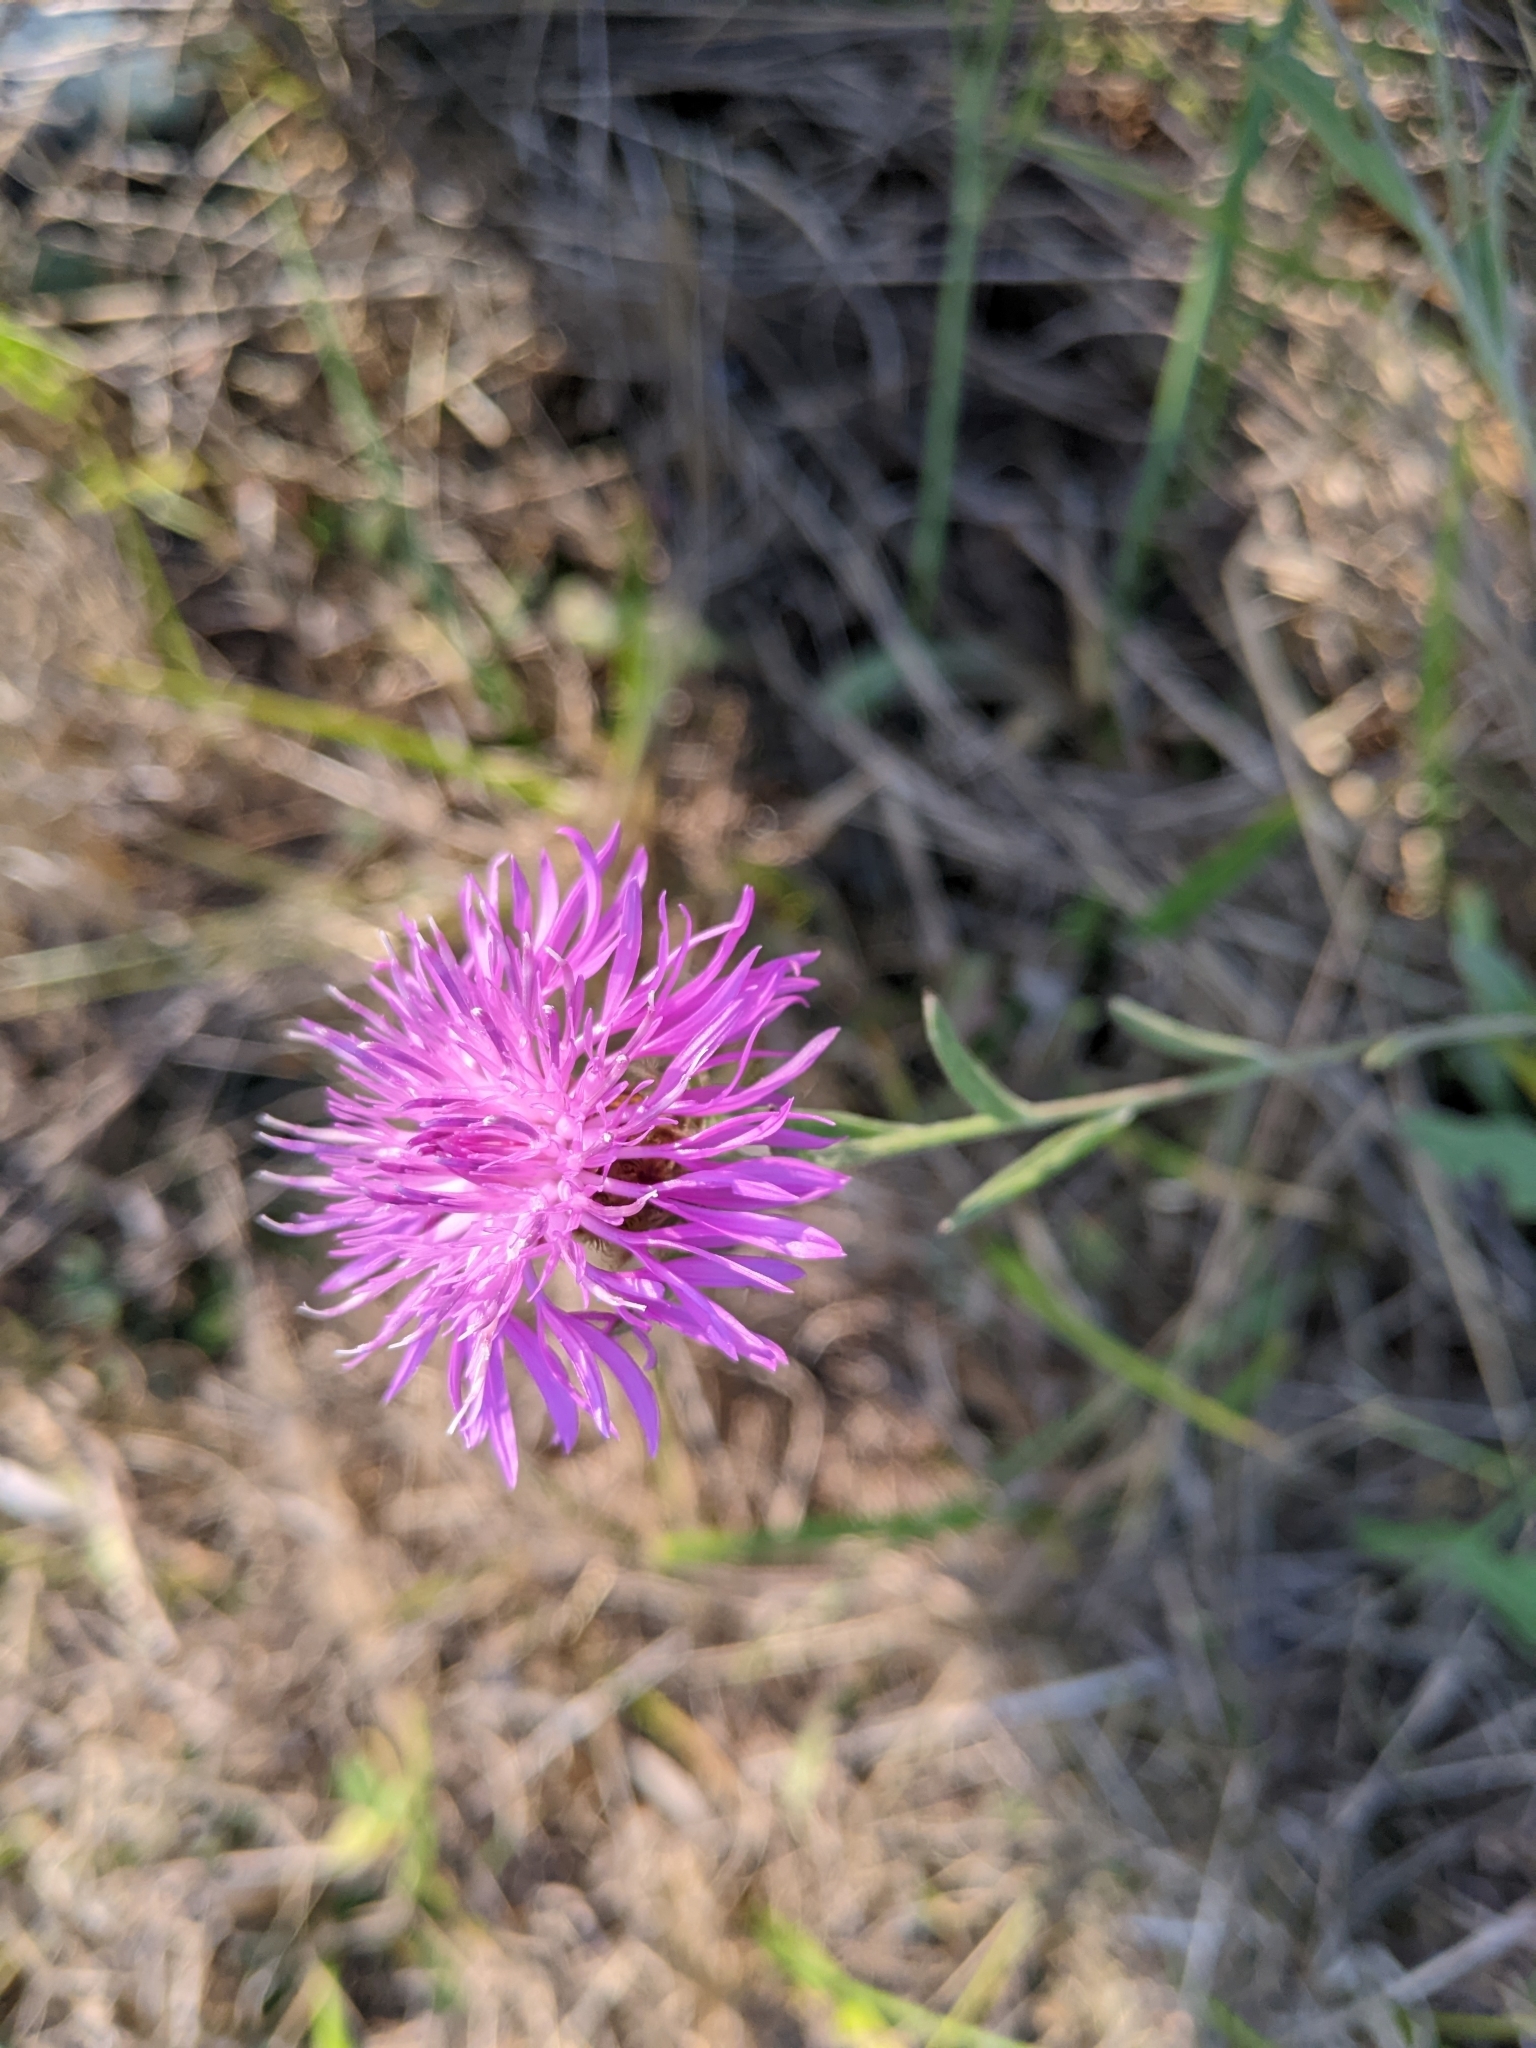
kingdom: Plantae
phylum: Tracheophyta
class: Magnoliopsida
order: Asterales
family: Asteraceae
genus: Centaurea
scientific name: Centaurea gerstlaueri
